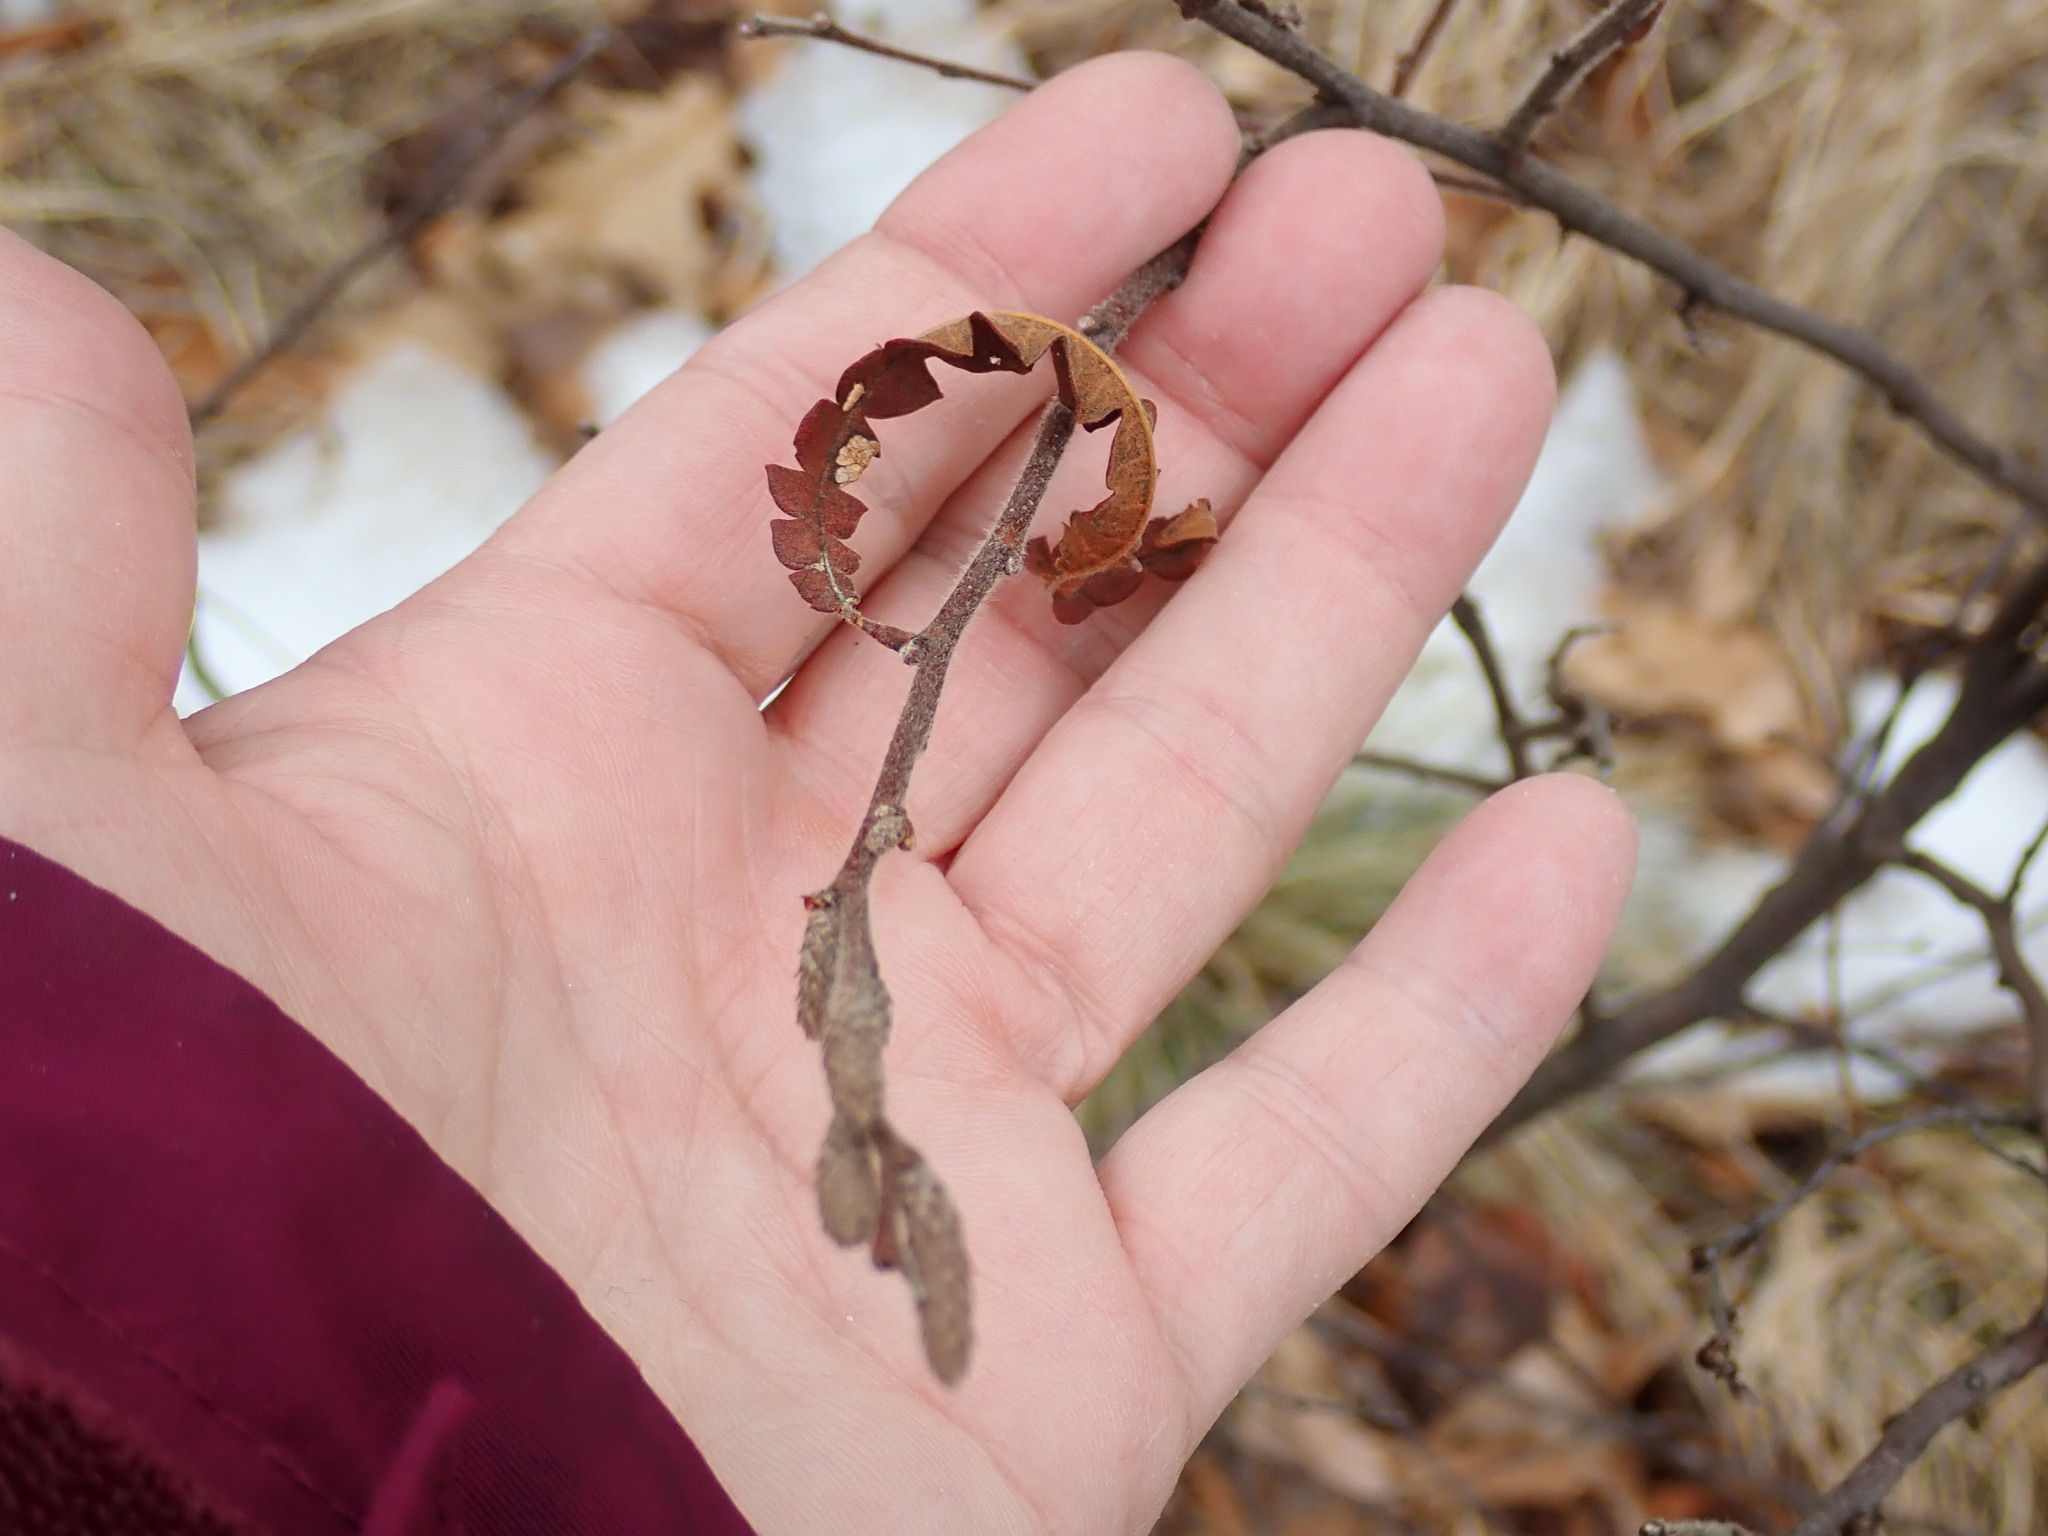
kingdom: Plantae
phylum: Tracheophyta
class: Magnoliopsida
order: Fagales
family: Myricaceae
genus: Comptonia
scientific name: Comptonia peregrina
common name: Sweet-fern
